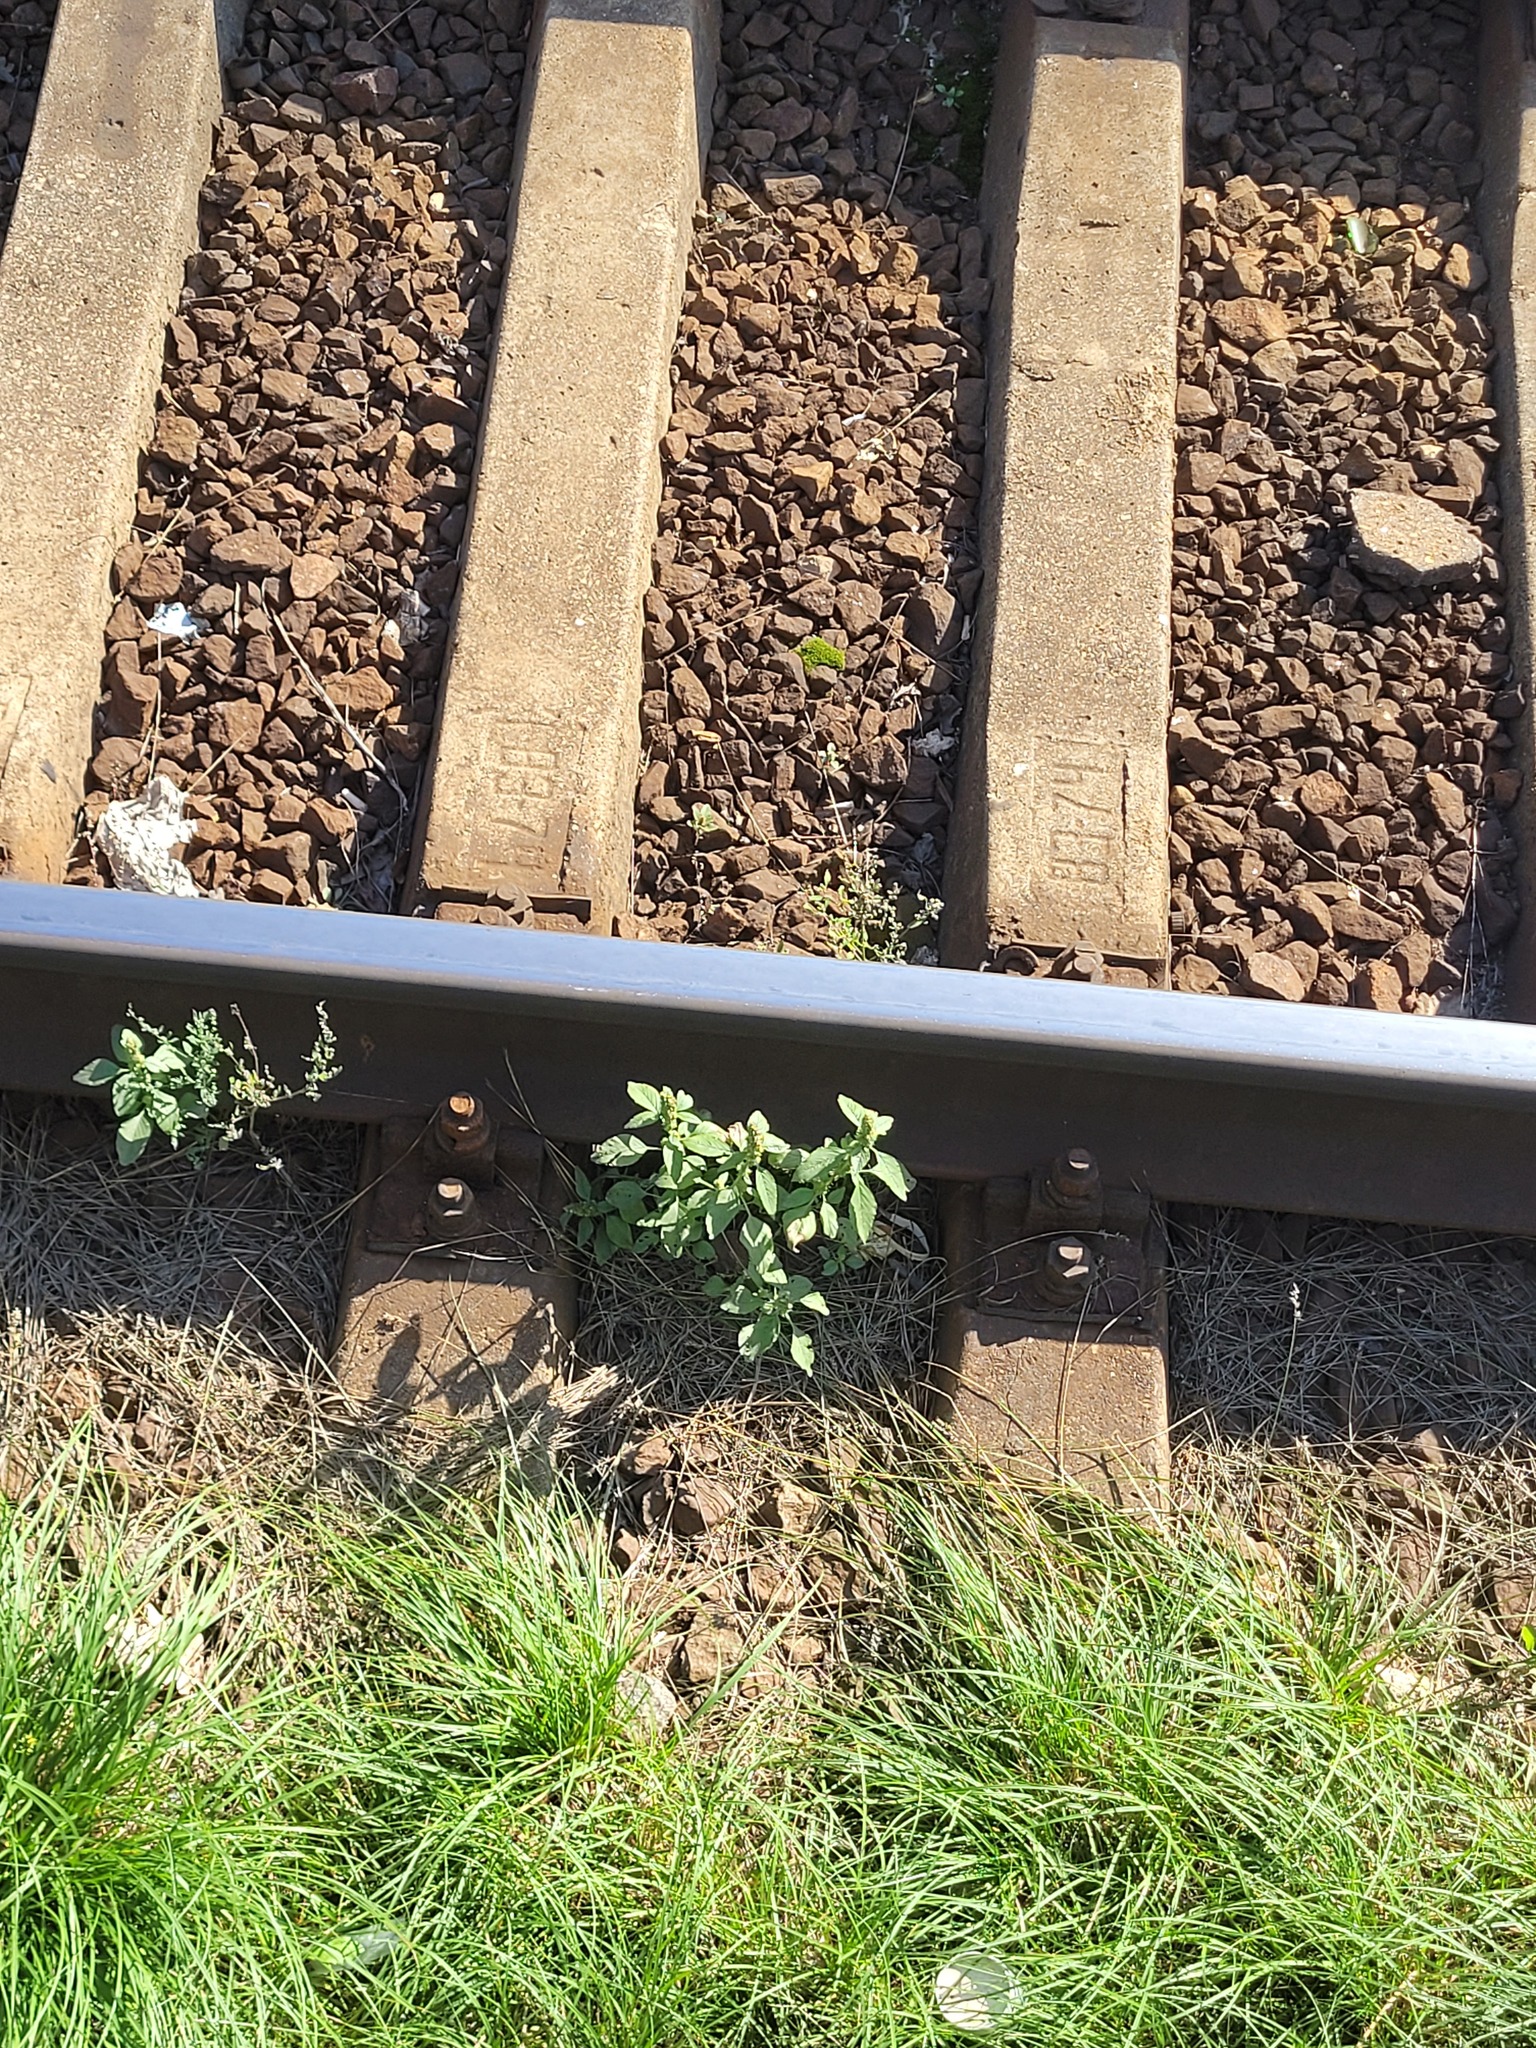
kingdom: Plantae
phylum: Tracheophyta
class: Magnoliopsida
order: Caryophyllales
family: Amaranthaceae
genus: Amaranthus
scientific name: Amaranthus retroflexus
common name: Redroot amaranth
